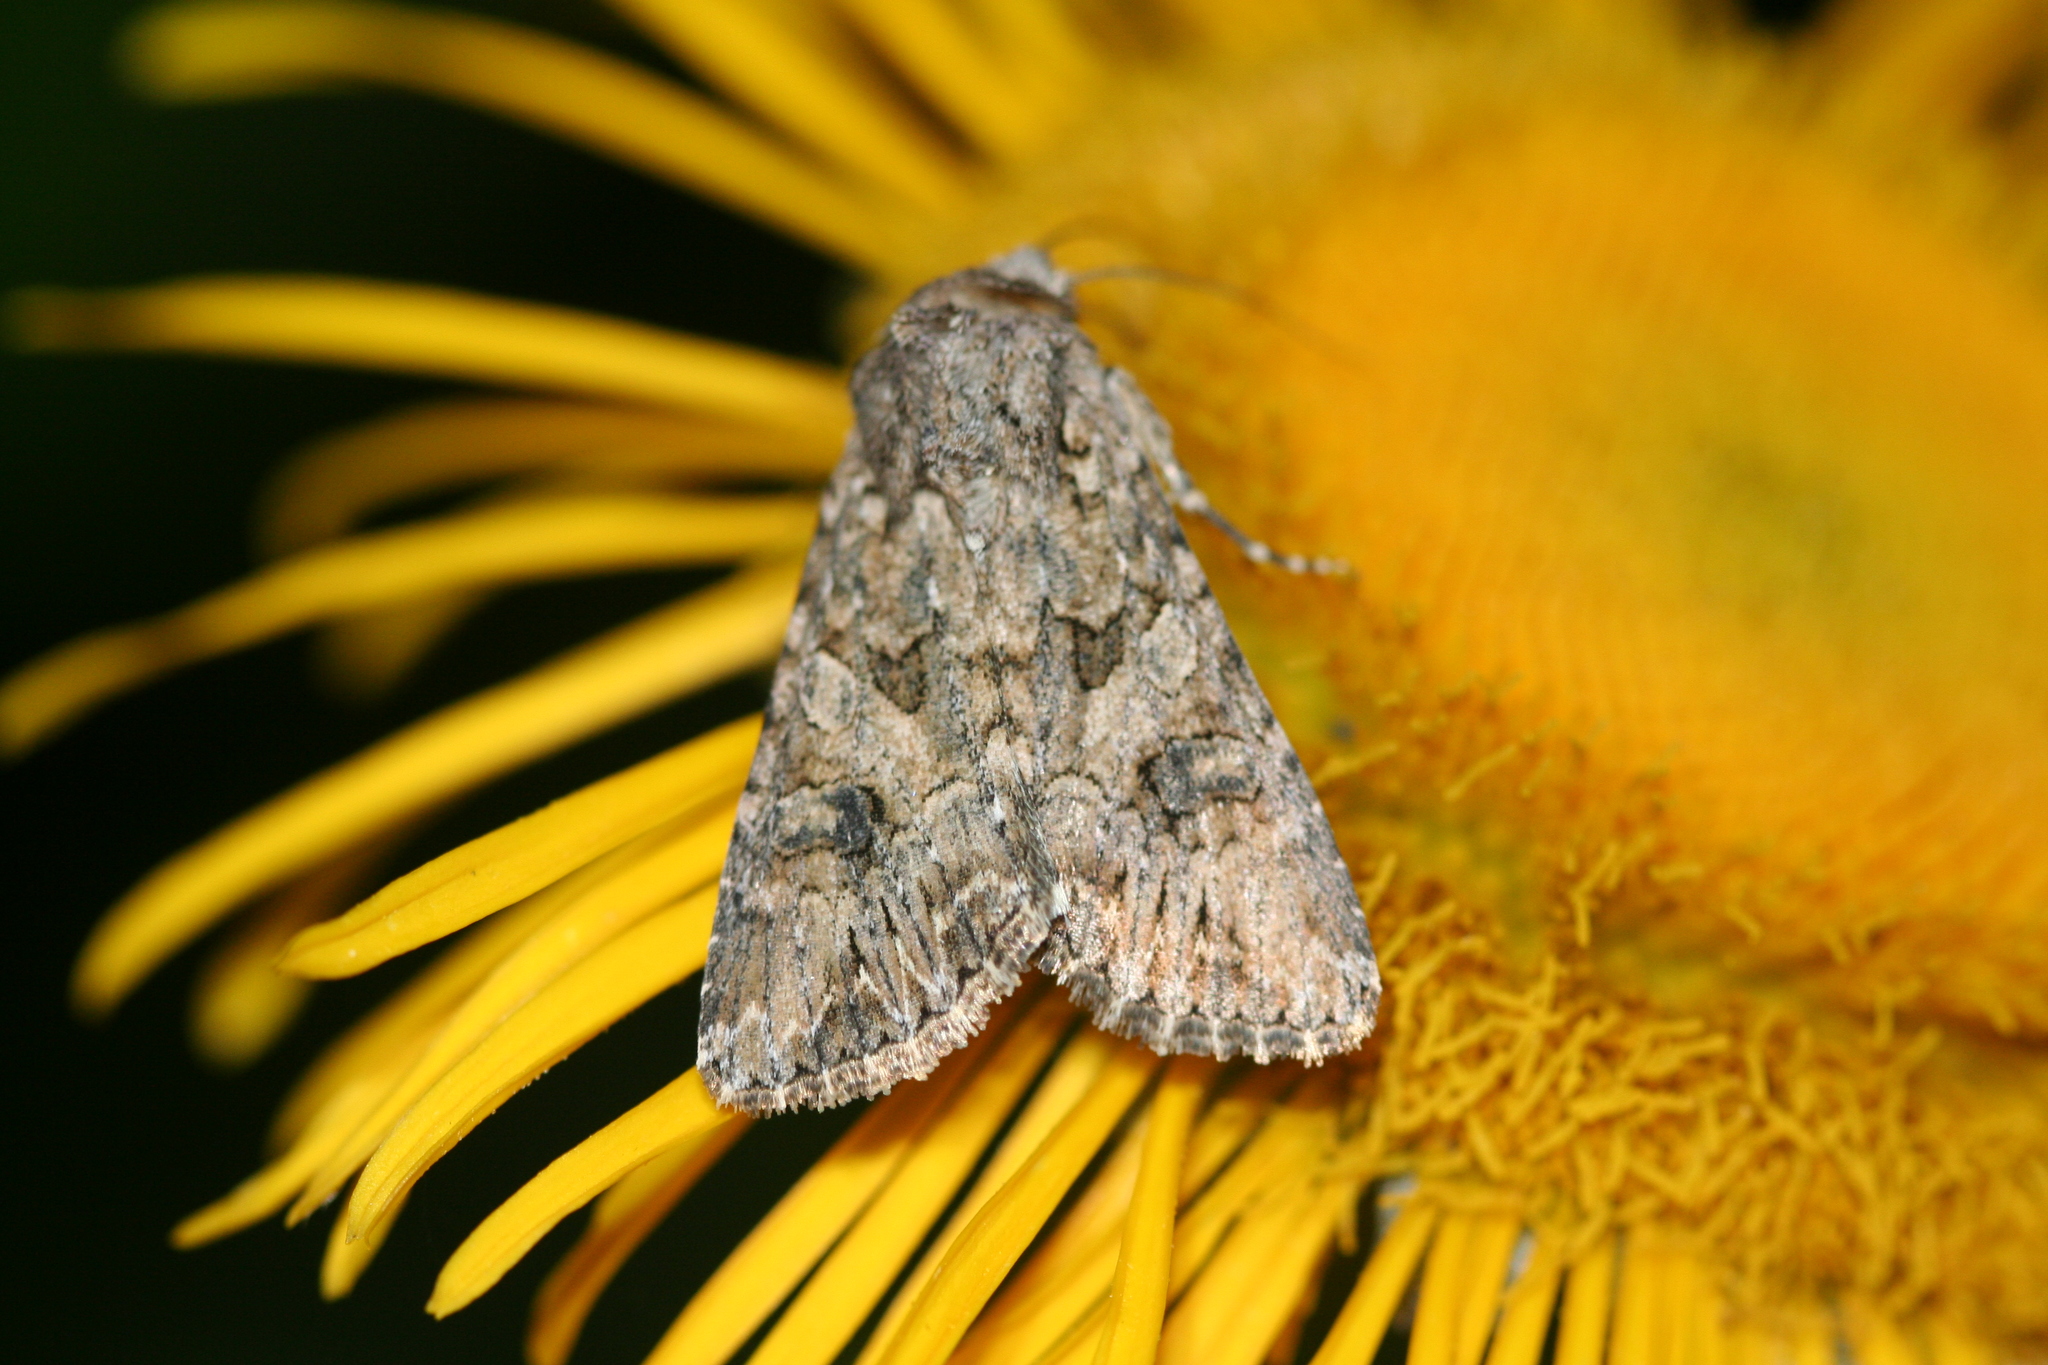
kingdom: Animalia
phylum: Arthropoda
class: Insecta
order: Lepidoptera
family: Noctuidae
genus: Anarta
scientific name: Anarta trifolii
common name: Clover cutworm moth
